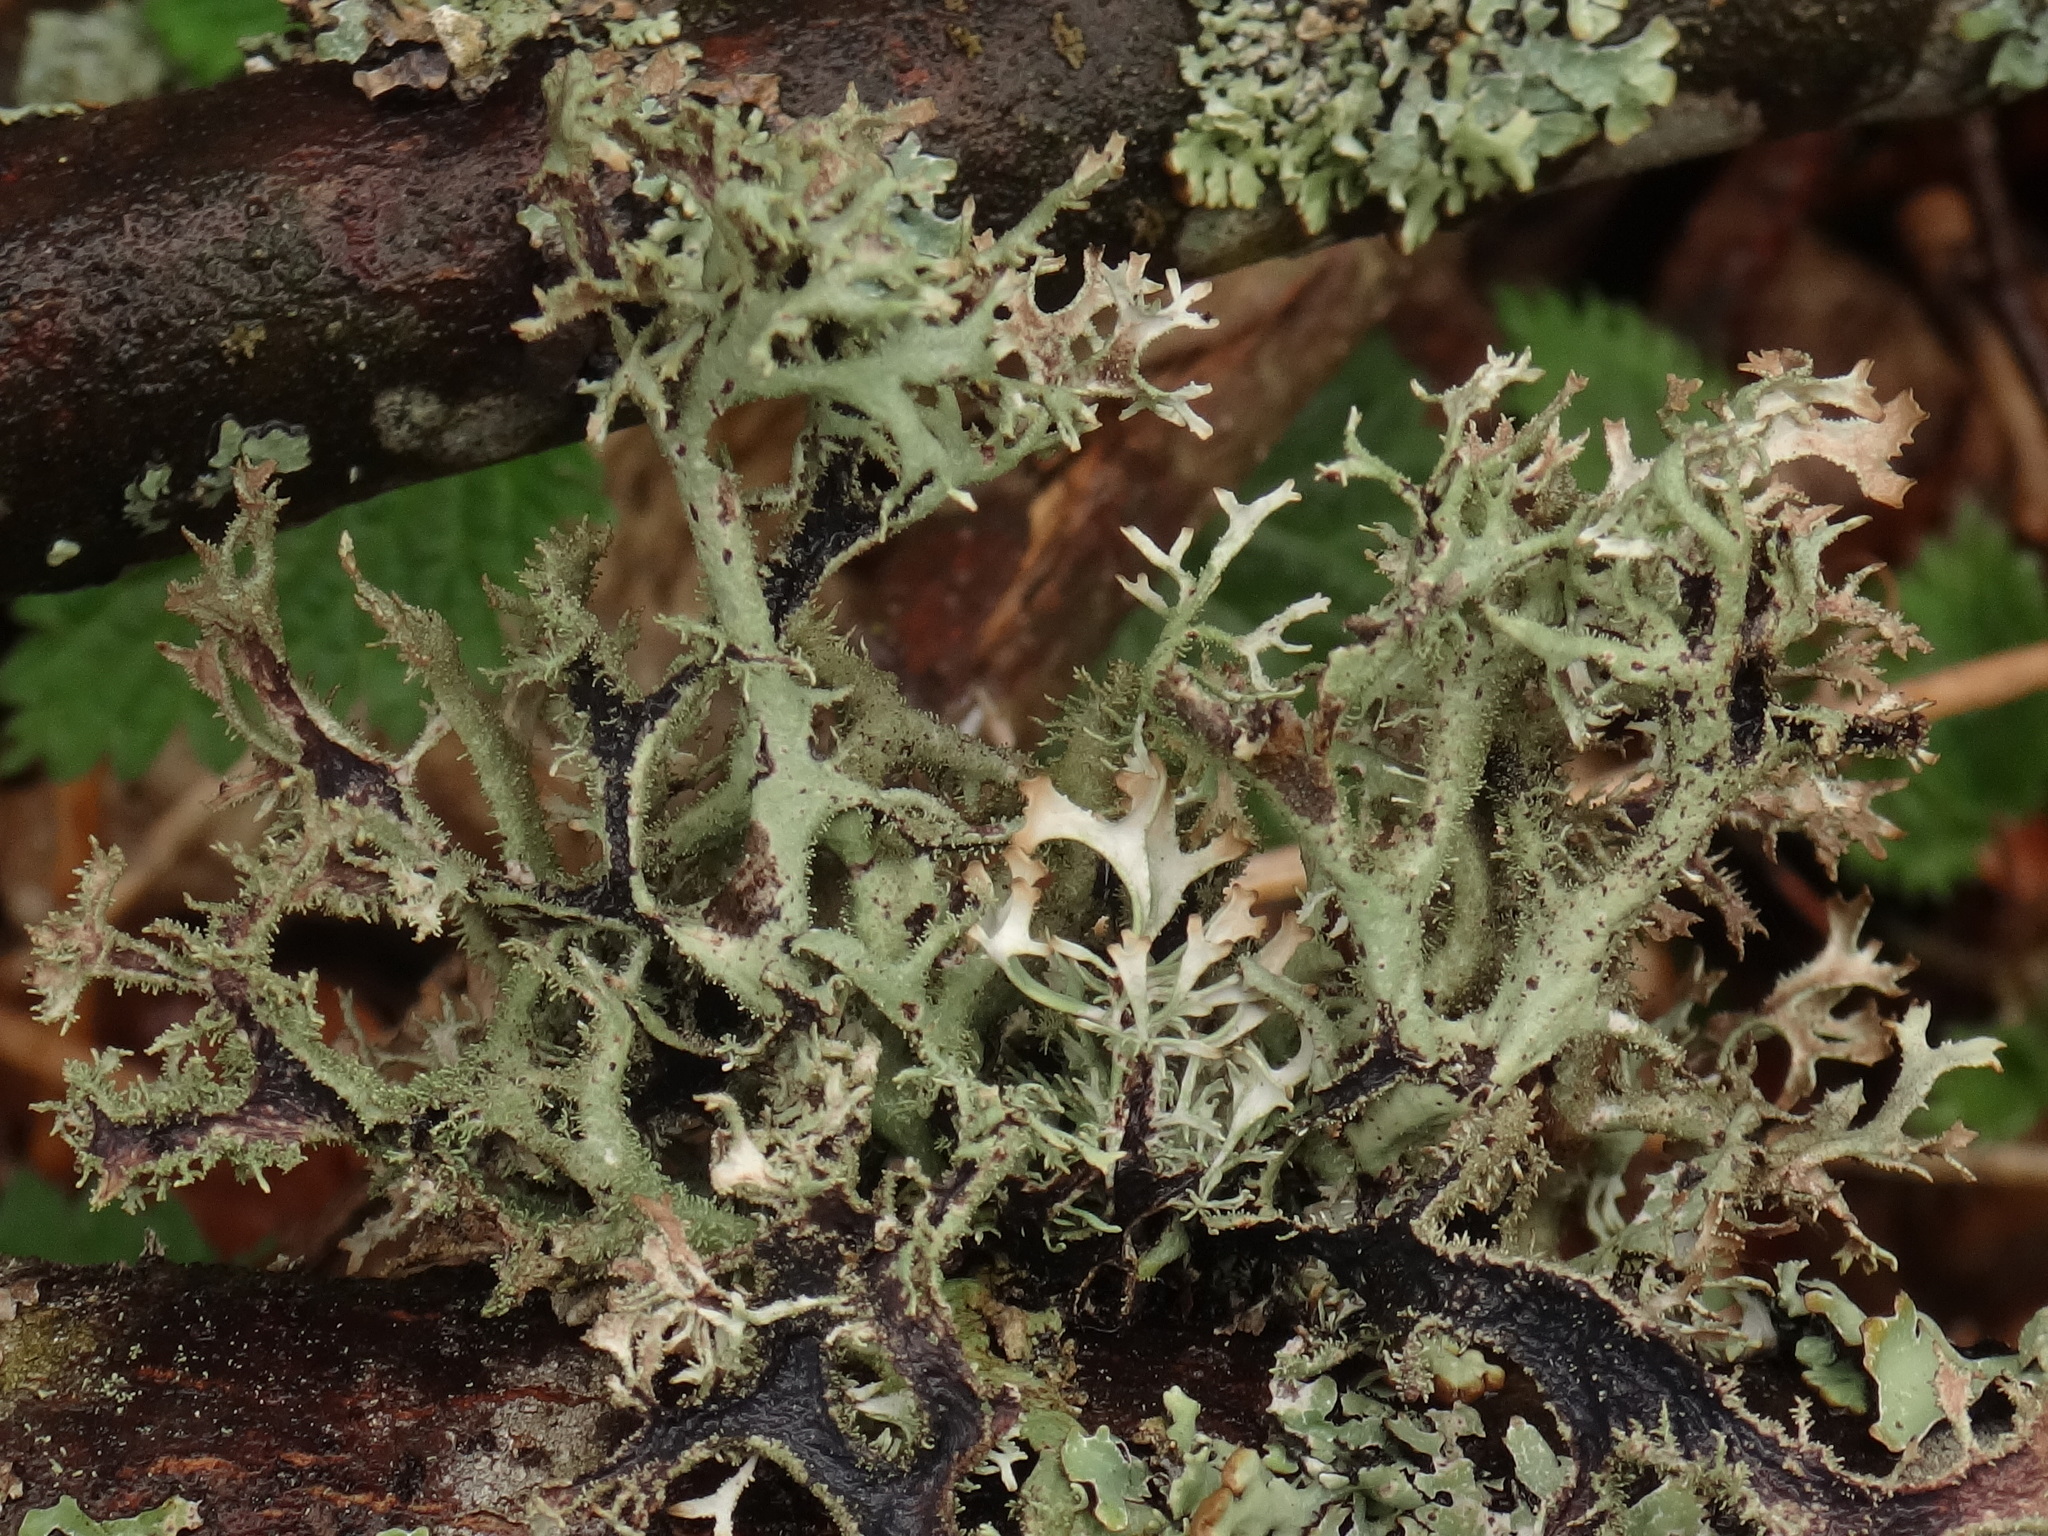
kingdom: Fungi
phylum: Ascomycota
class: Lecanoromycetes
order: Lecanorales
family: Parmeliaceae
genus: Pseudevernia
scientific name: Pseudevernia furfuracea
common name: Tree moss
